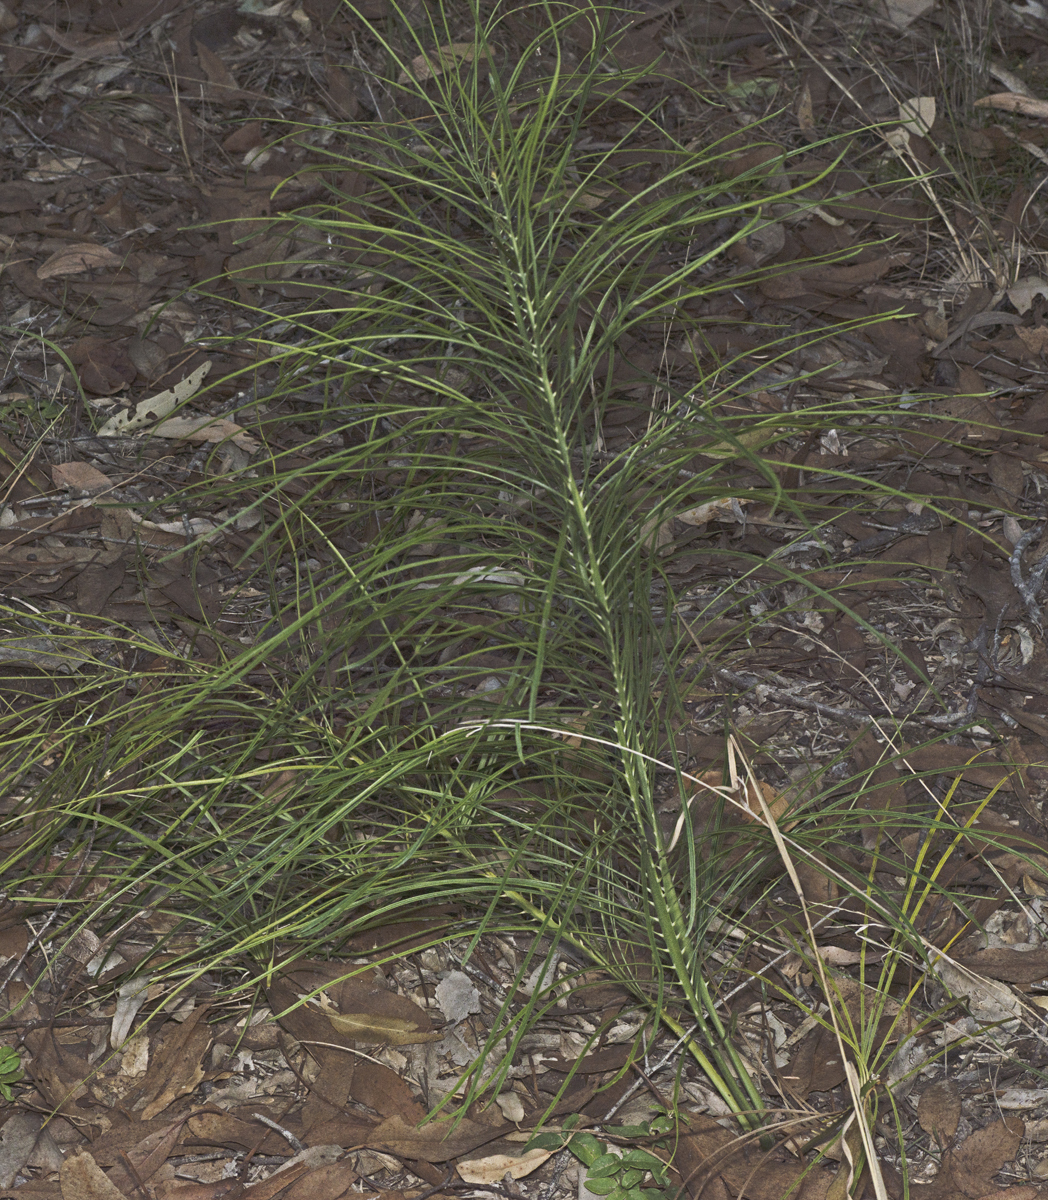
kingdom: Plantae
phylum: Tracheophyta
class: Cycadopsida
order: Cycadales
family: Zamiaceae
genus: Macrozamia
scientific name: Macrozamia pauli-guilielmi
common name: Pineapple zamia
